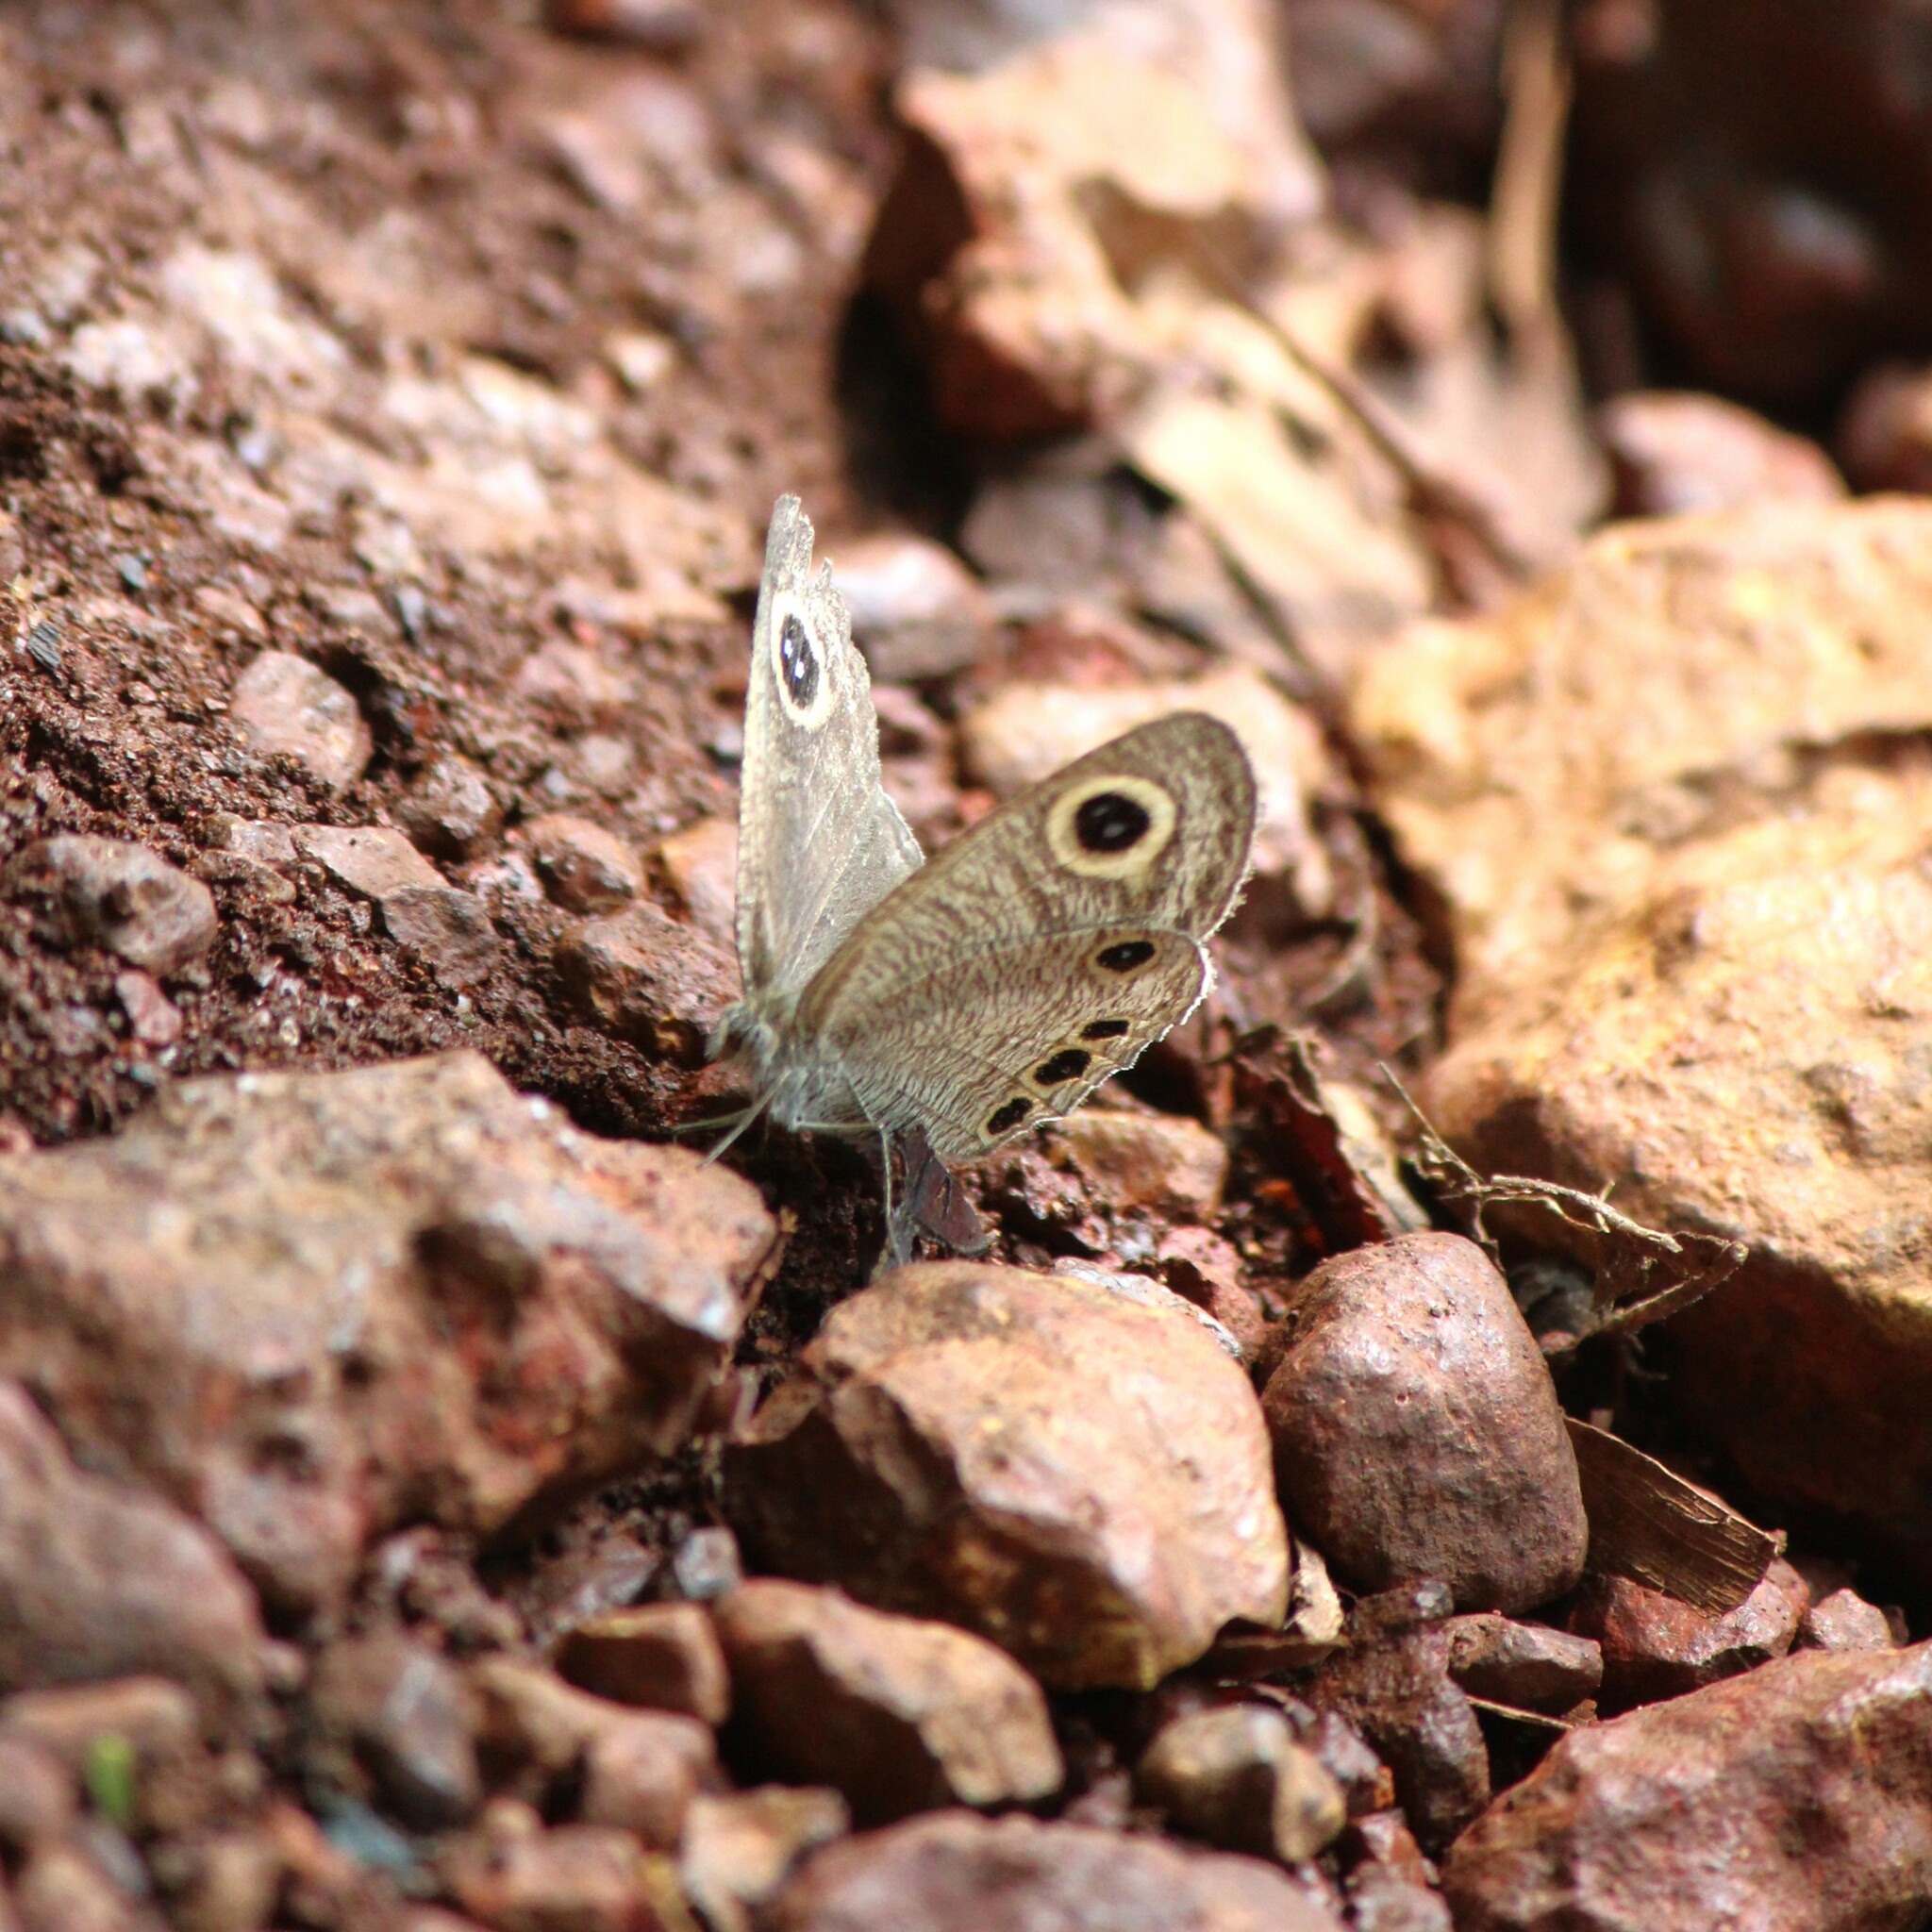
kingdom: Animalia
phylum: Arthropoda
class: Insecta
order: Lepidoptera
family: Nymphalidae
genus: Ypthima
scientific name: Ypthima huebneri
